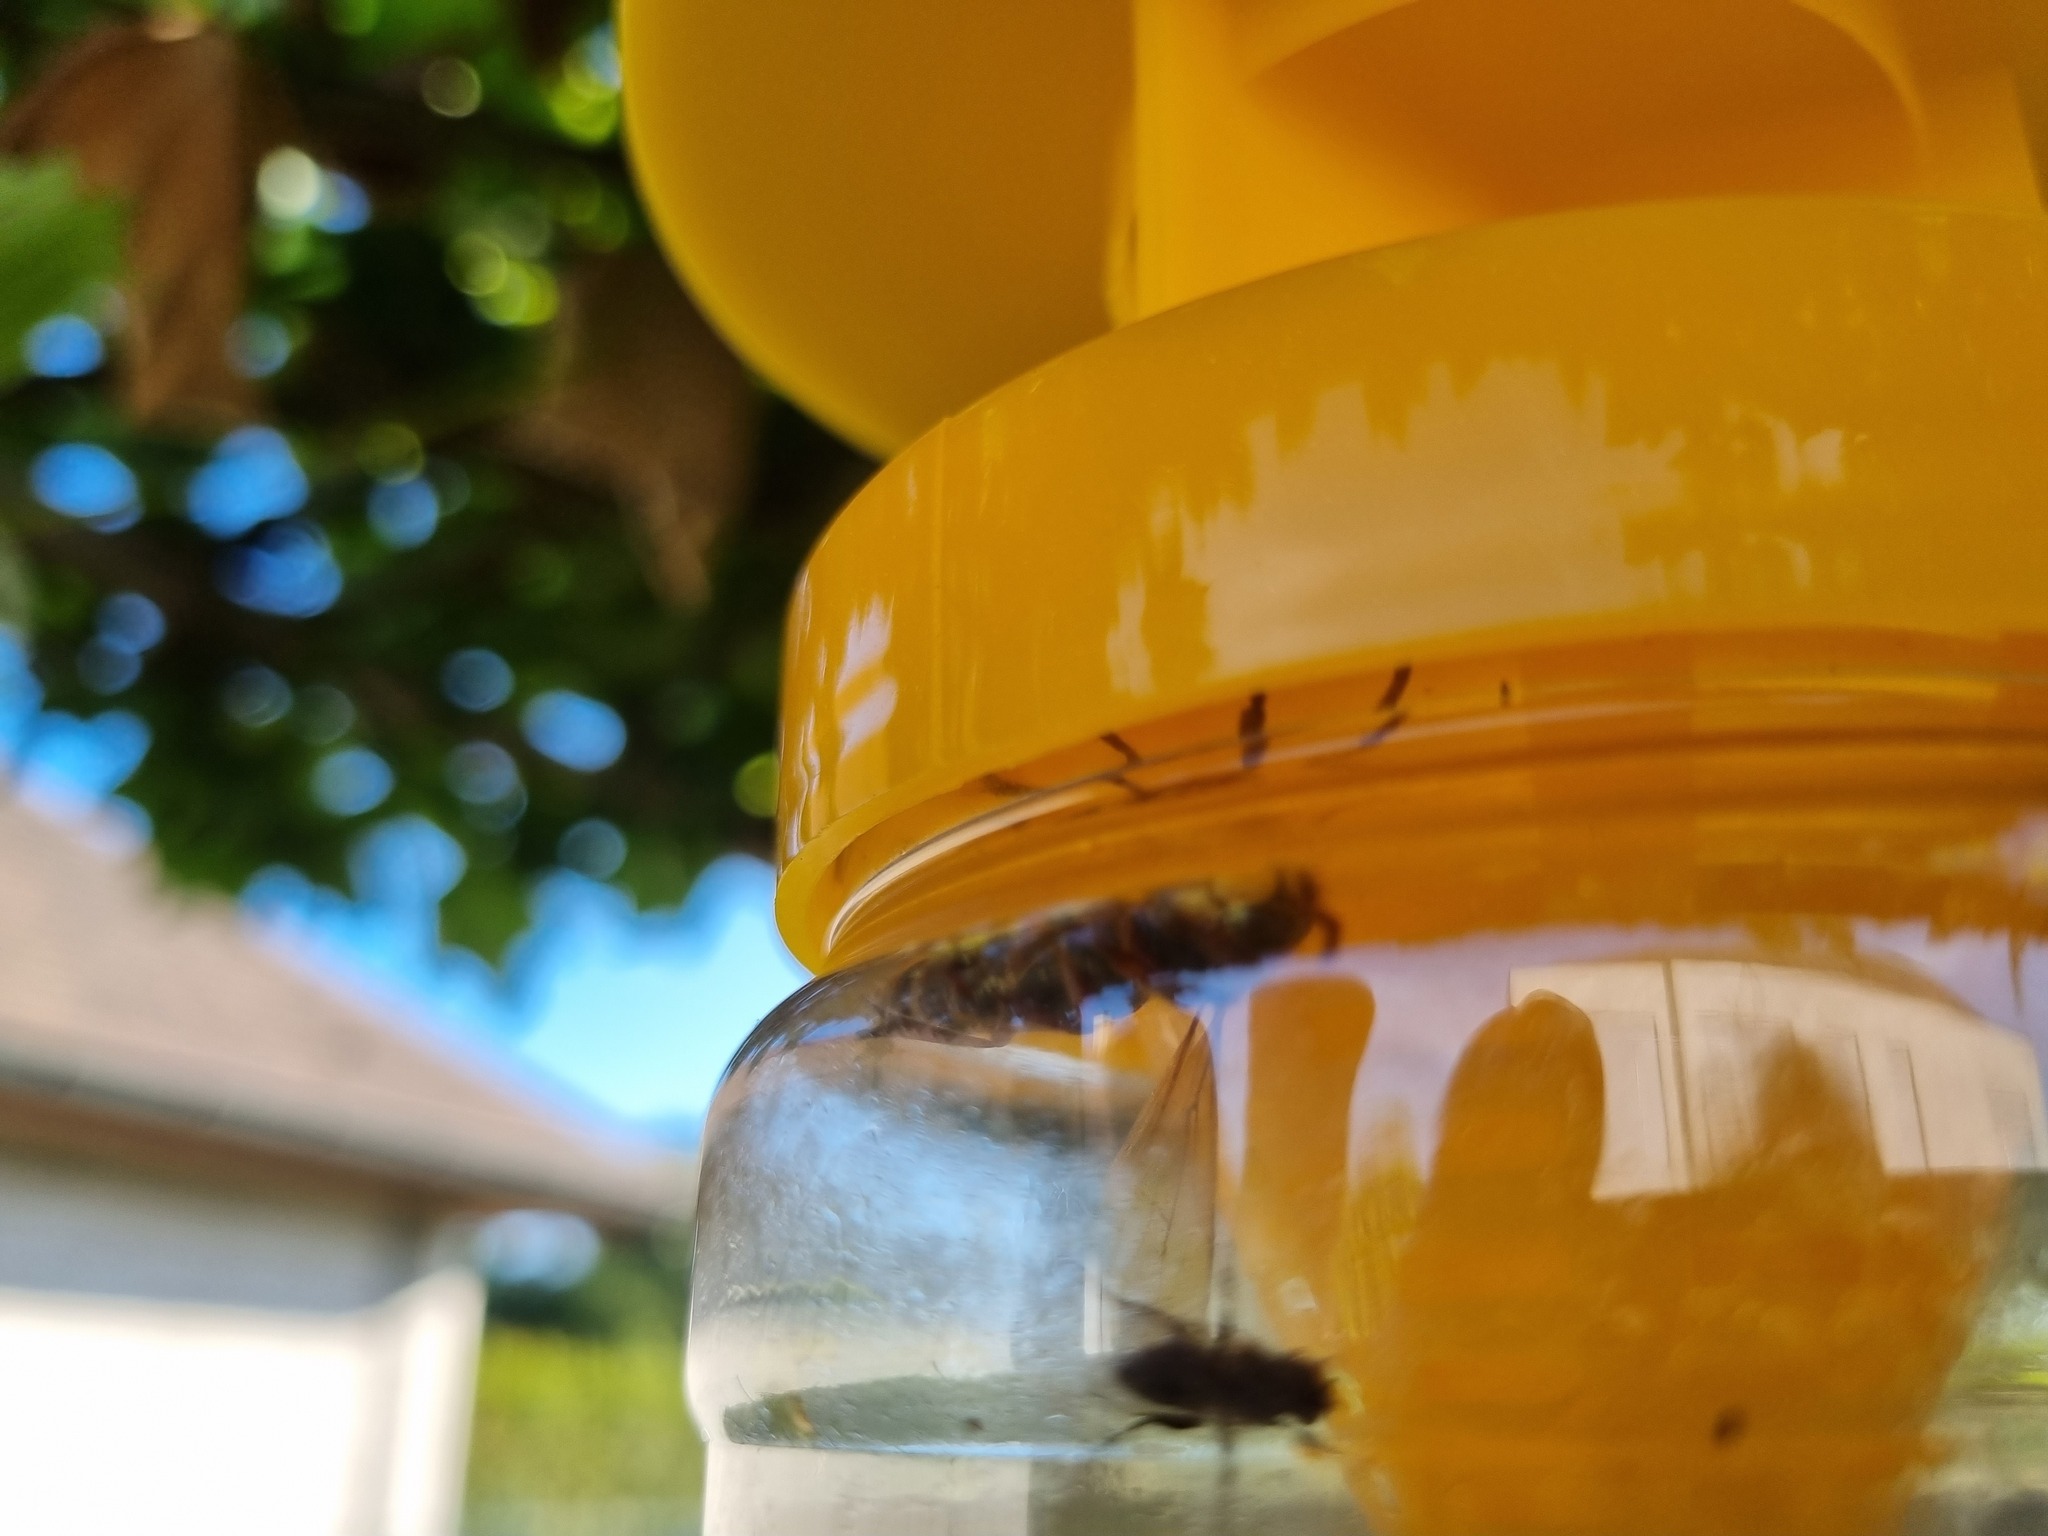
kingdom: Animalia
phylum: Arthropoda
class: Insecta
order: Hymenoptera
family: Vespidae
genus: Vespa
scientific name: Vespa crabro
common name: Hornet
